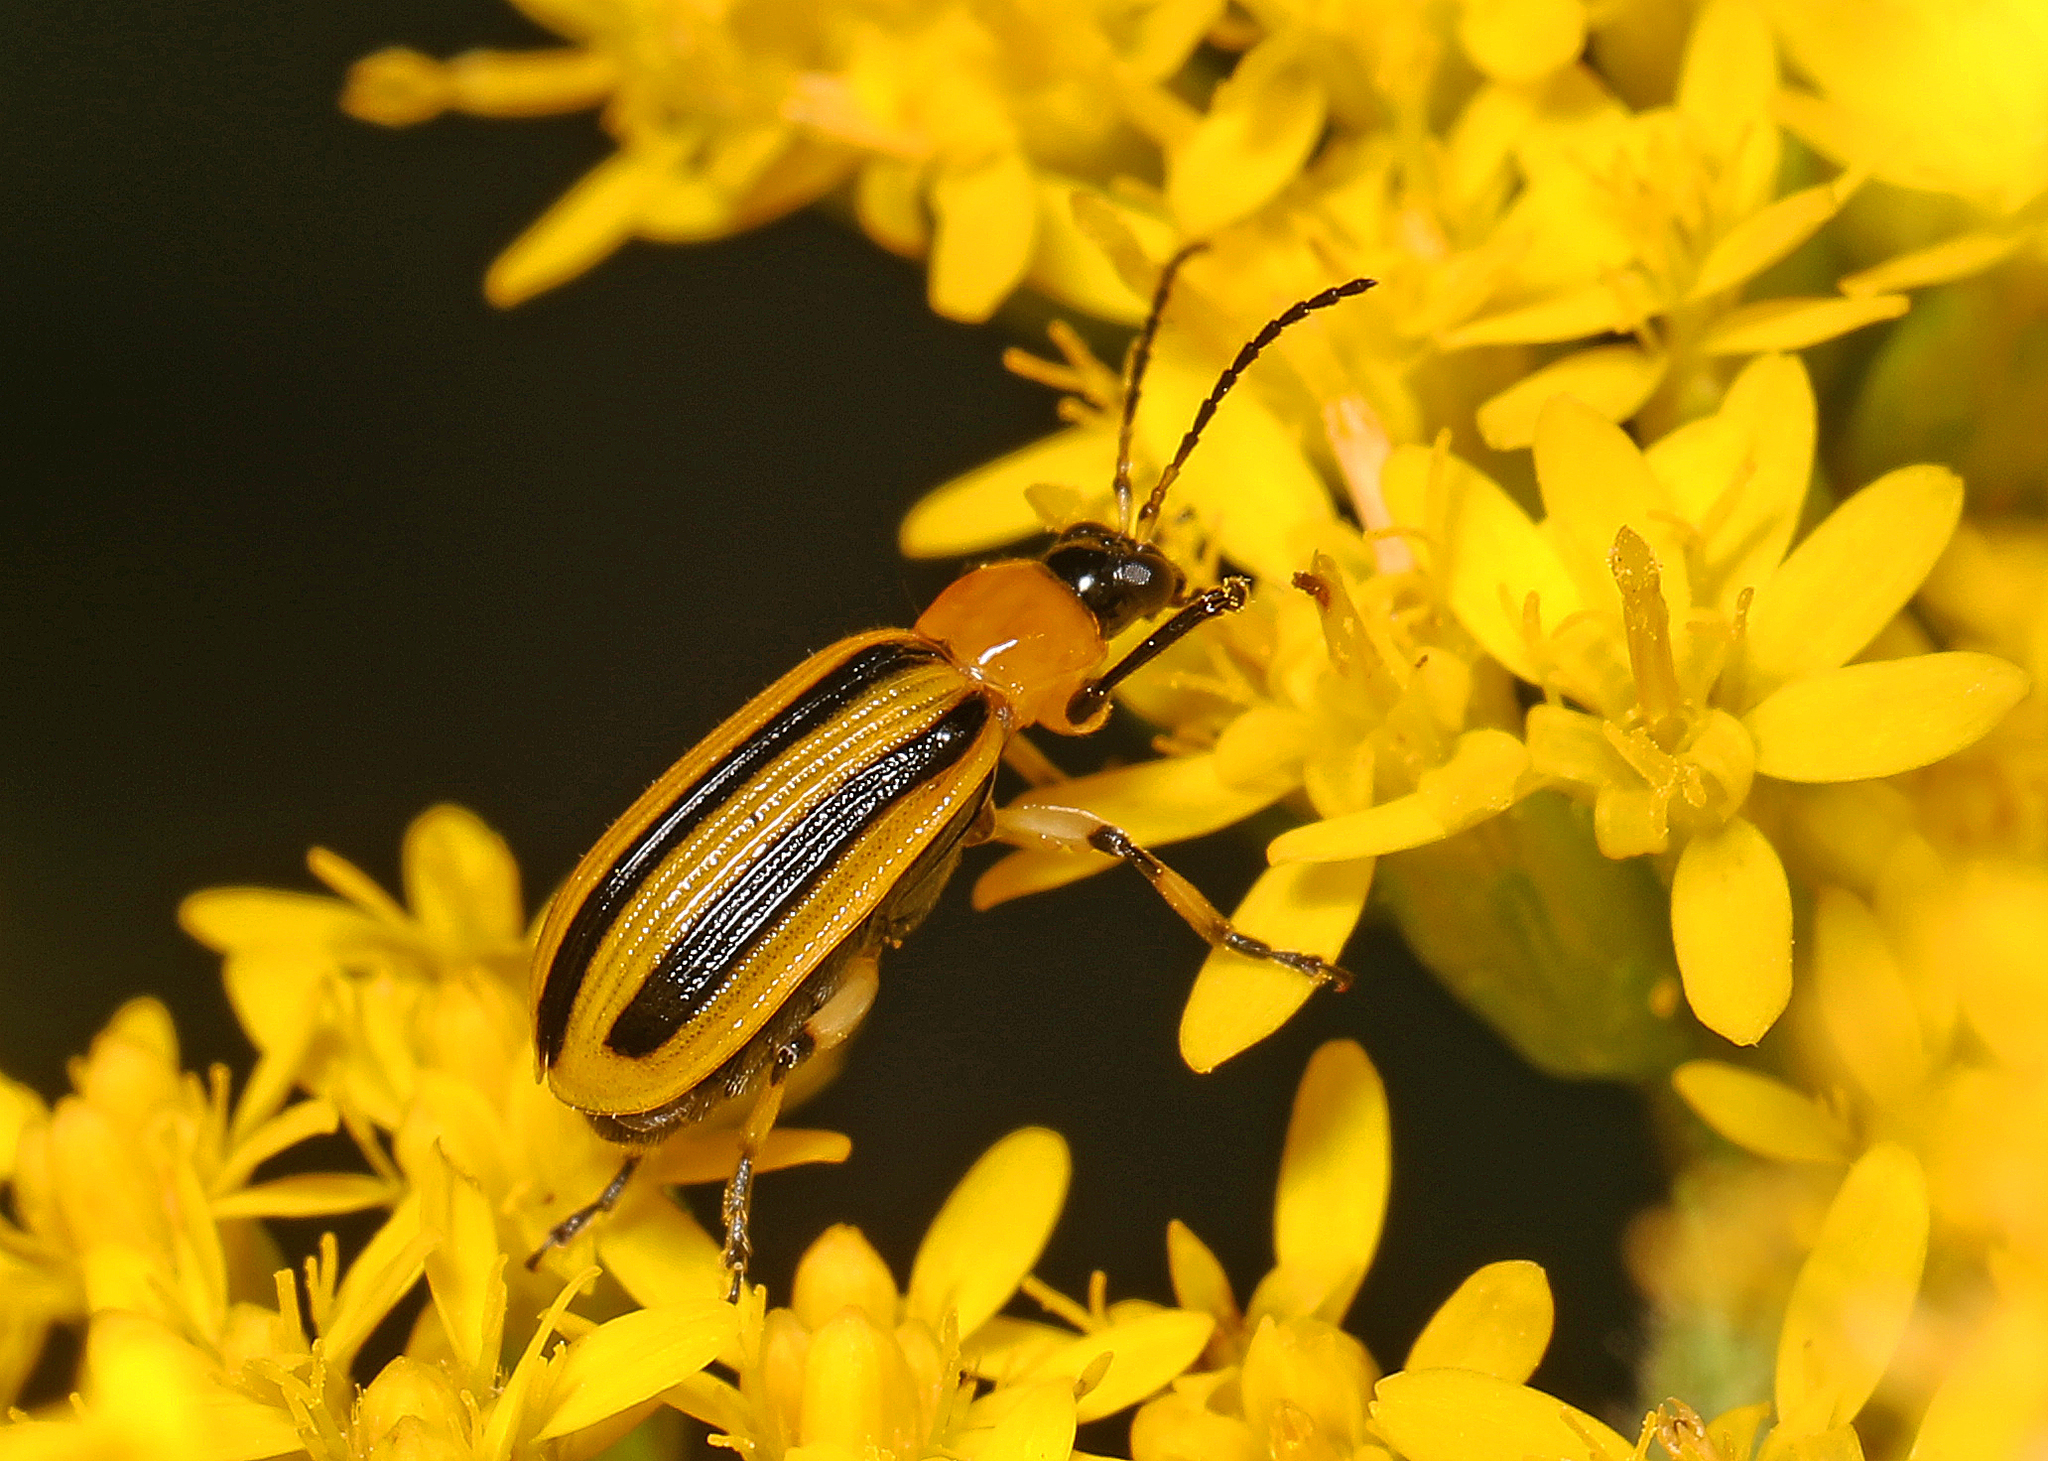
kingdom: Animalia
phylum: Arthropoda
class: Insecta
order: Coleoptera
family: Chrysomelidae
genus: Acalymma
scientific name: Acalymma vittatum
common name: Striped cucumber beetle
